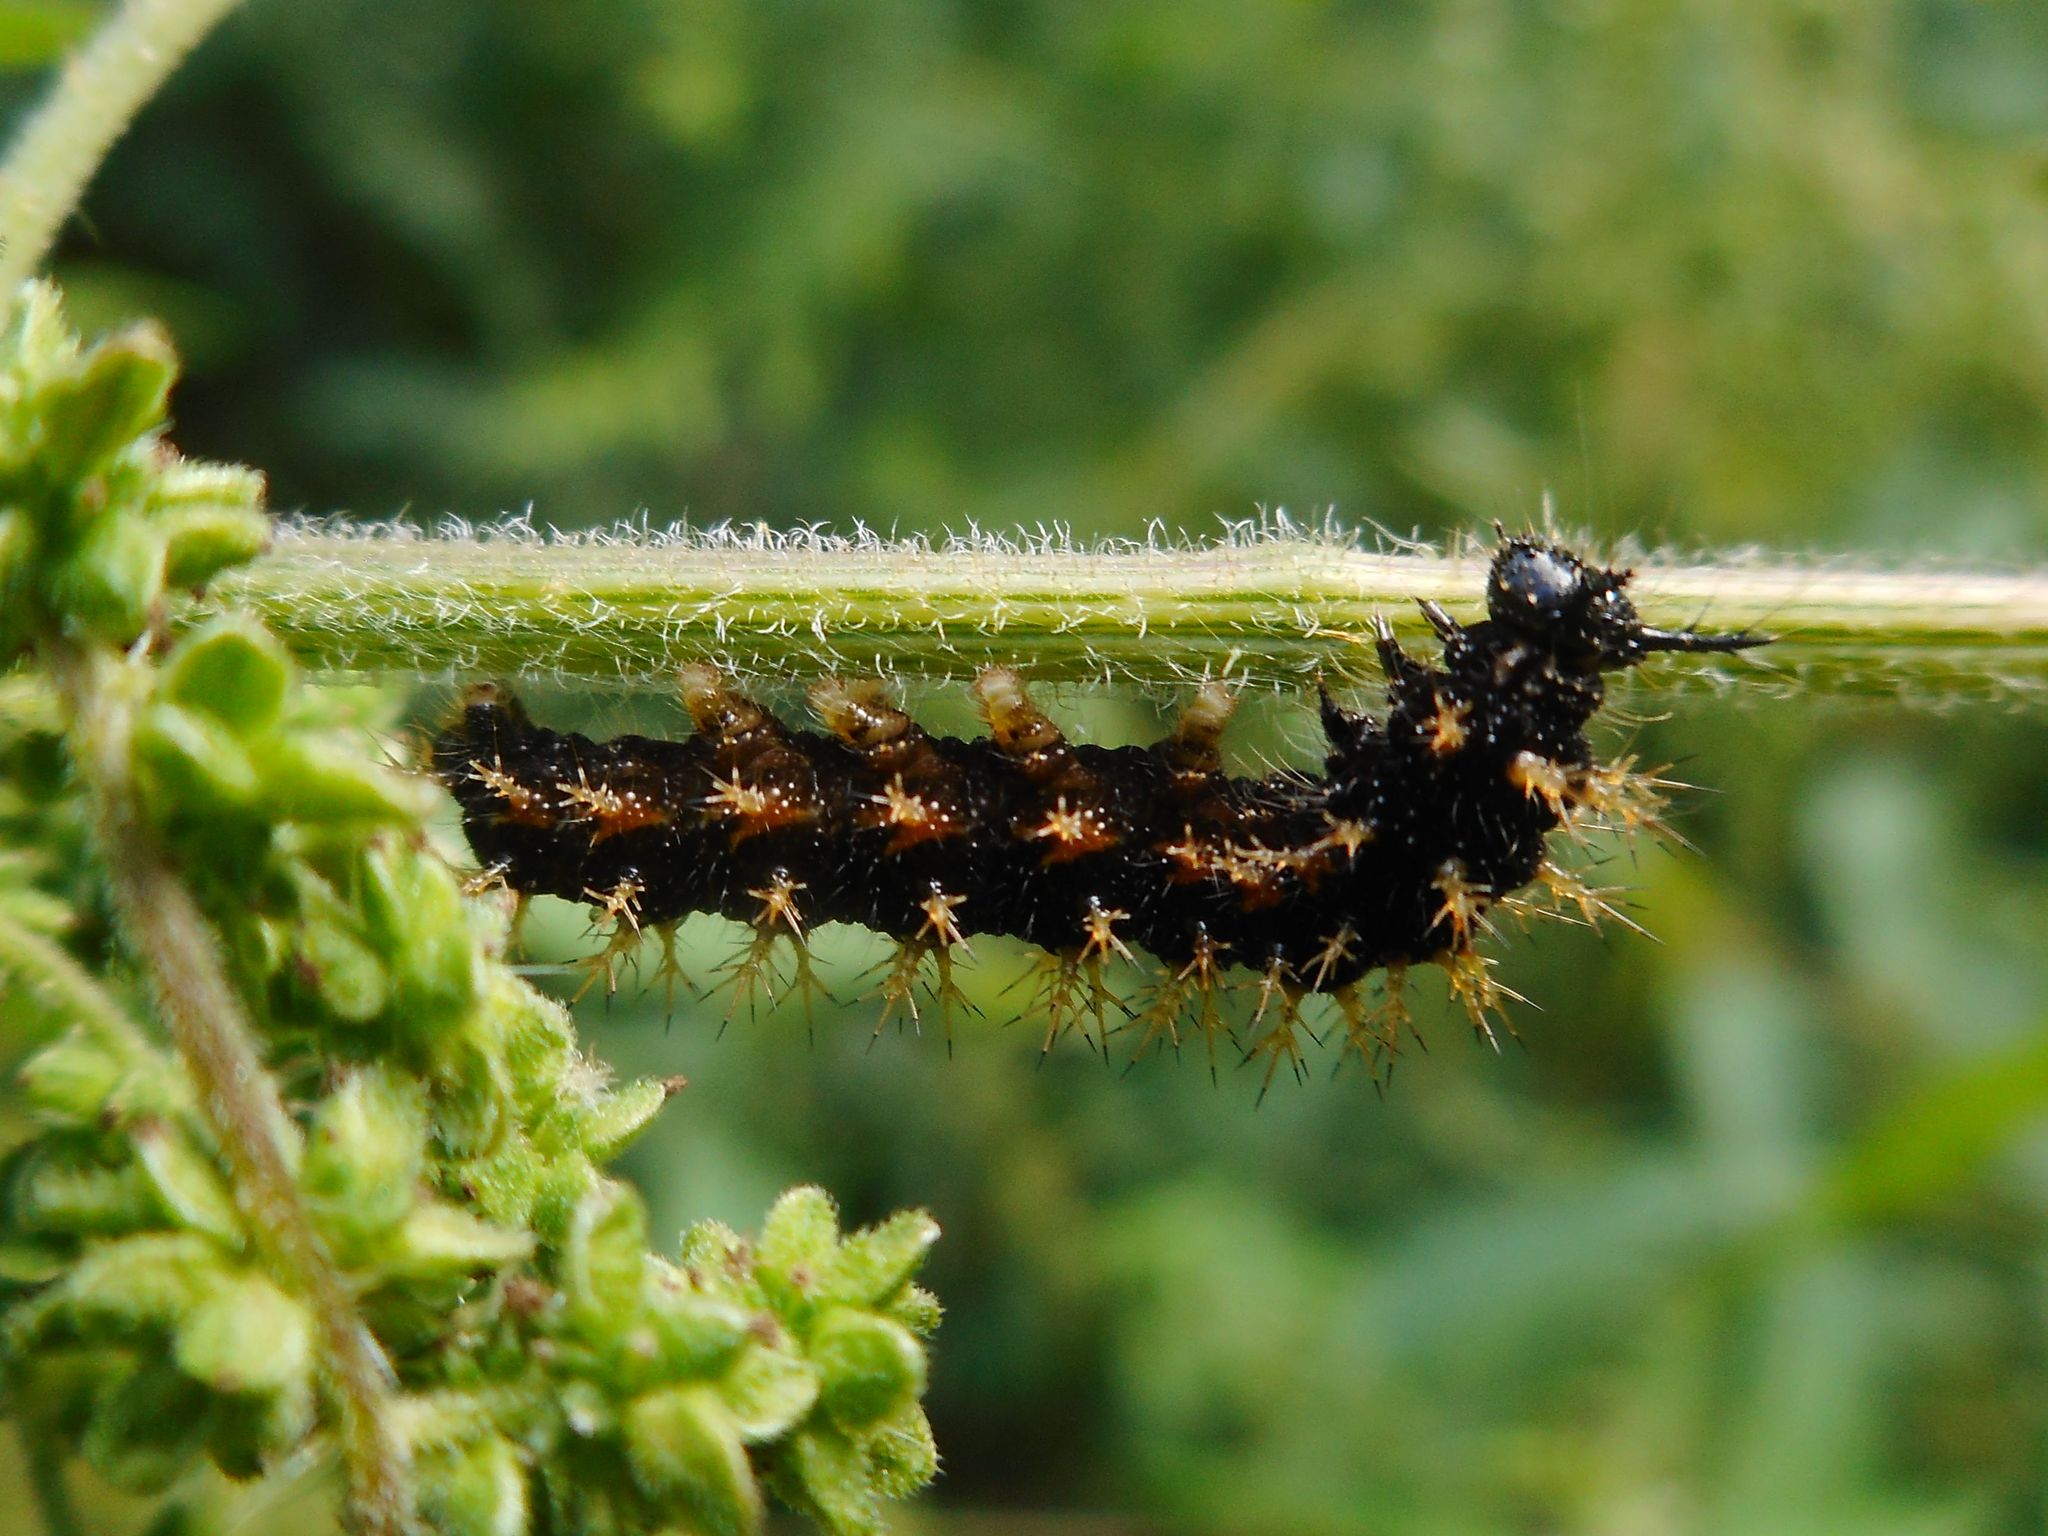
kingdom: Animalia
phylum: Arthropoda
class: Insecta
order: Lepidoptera
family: Nymphalidae
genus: Araschnia
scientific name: Araschnia levana
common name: Map butterfly
